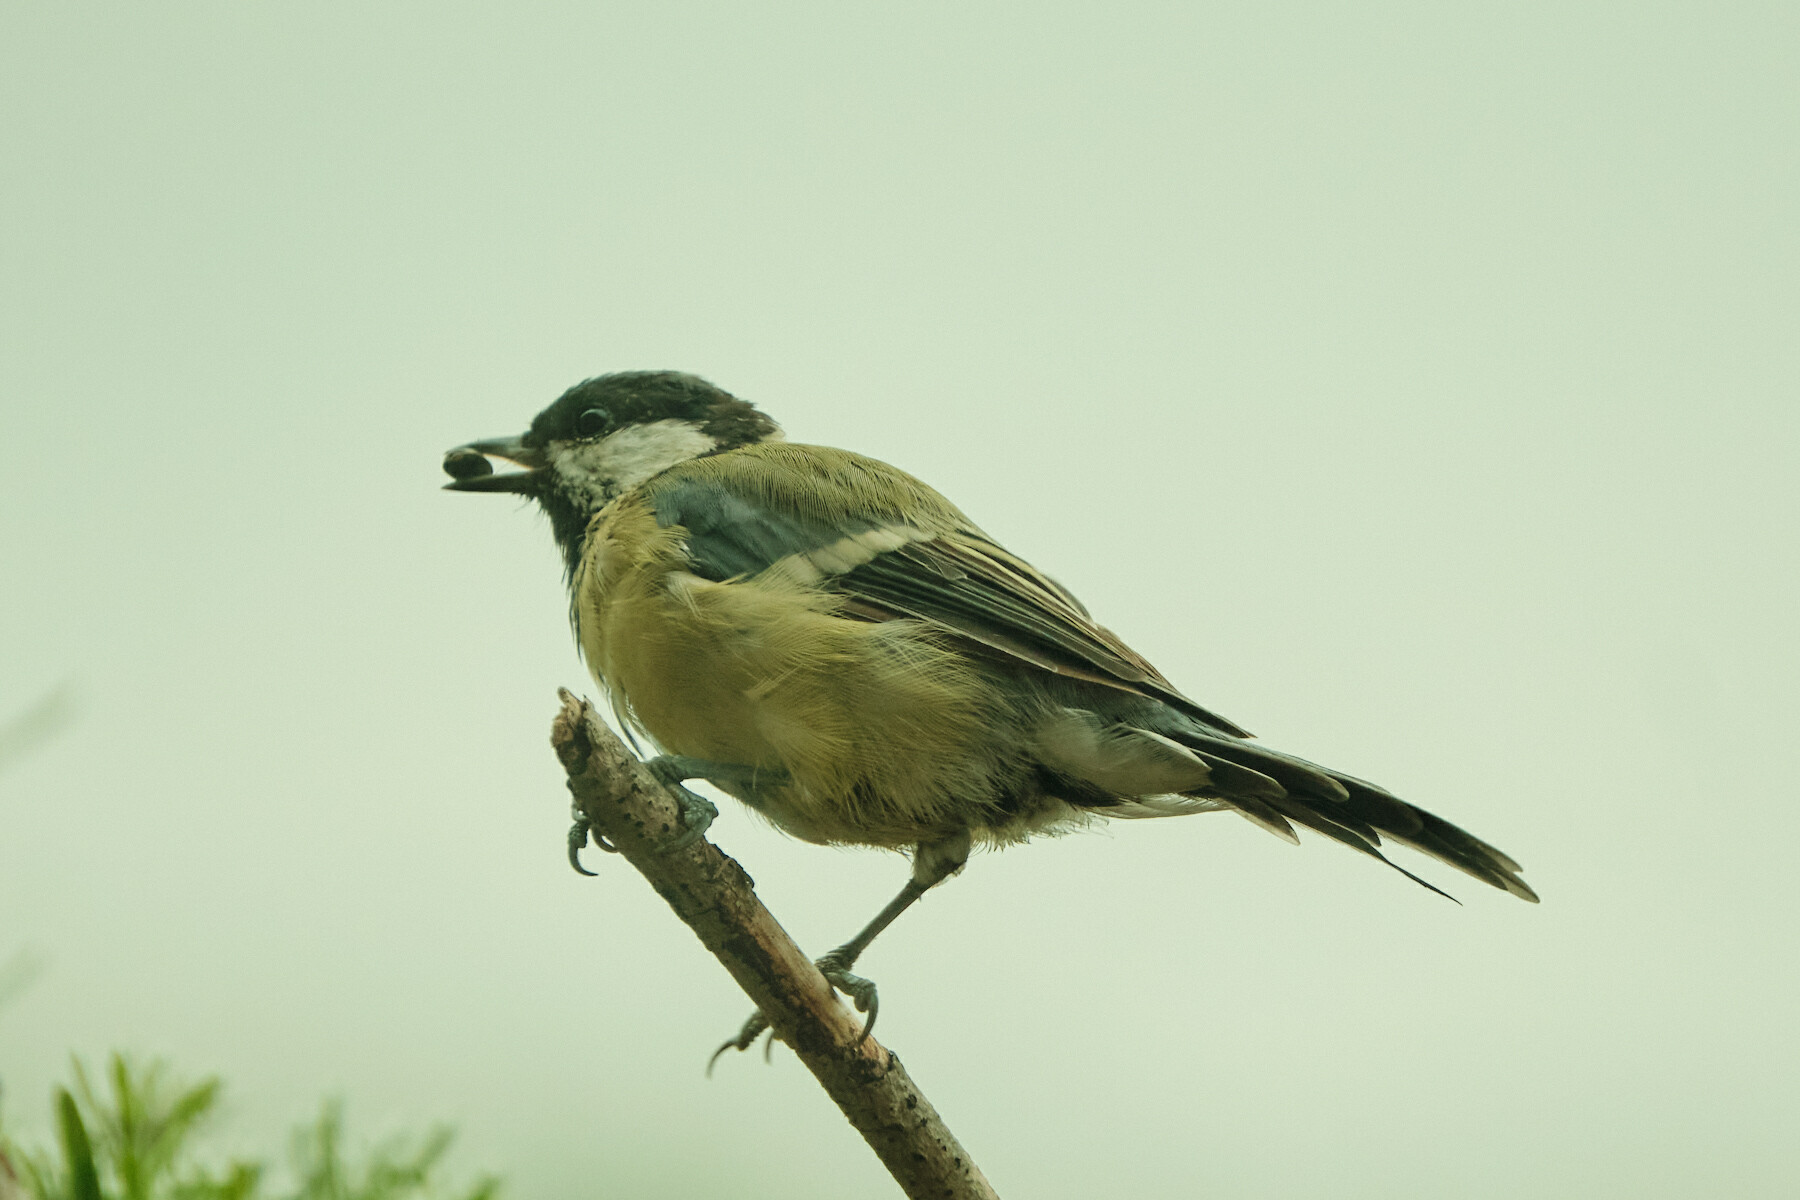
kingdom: Animalia
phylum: Chordata
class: Aves
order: Passeriformes
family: Paridae
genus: Parus
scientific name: Parus major
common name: Great tit
